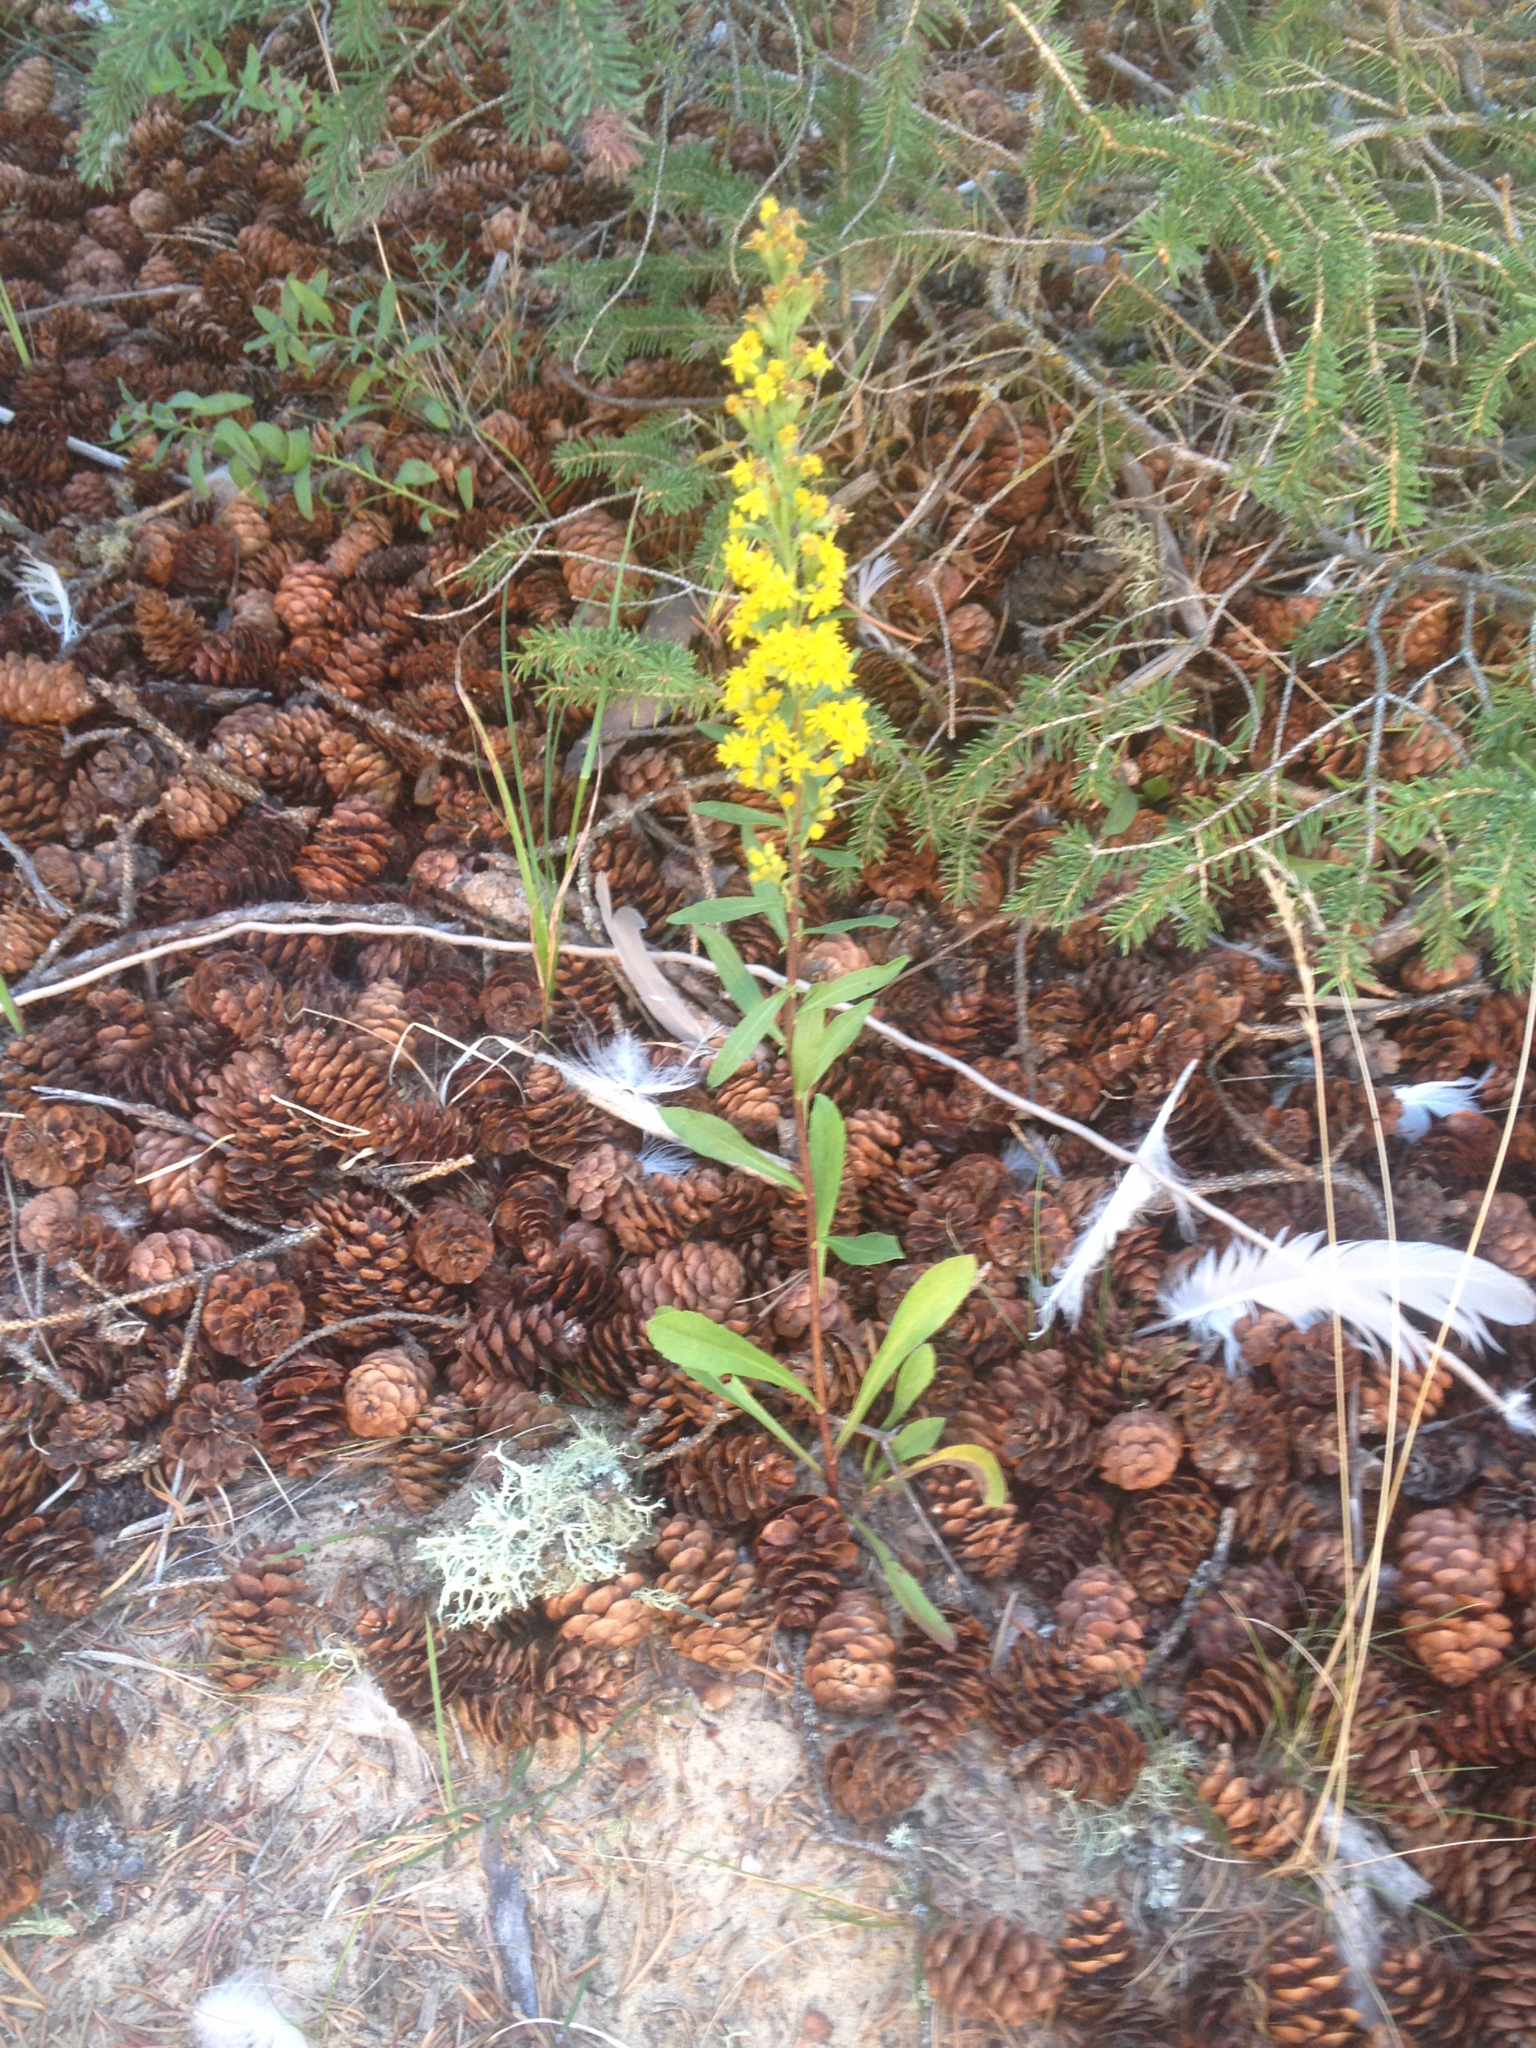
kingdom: Plantae
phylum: Tracheophyta
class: Magnoliopsida
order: Asterales
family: Asteraceae
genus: Solidago
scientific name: Solidago hispida
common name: Hairy goldenrod
